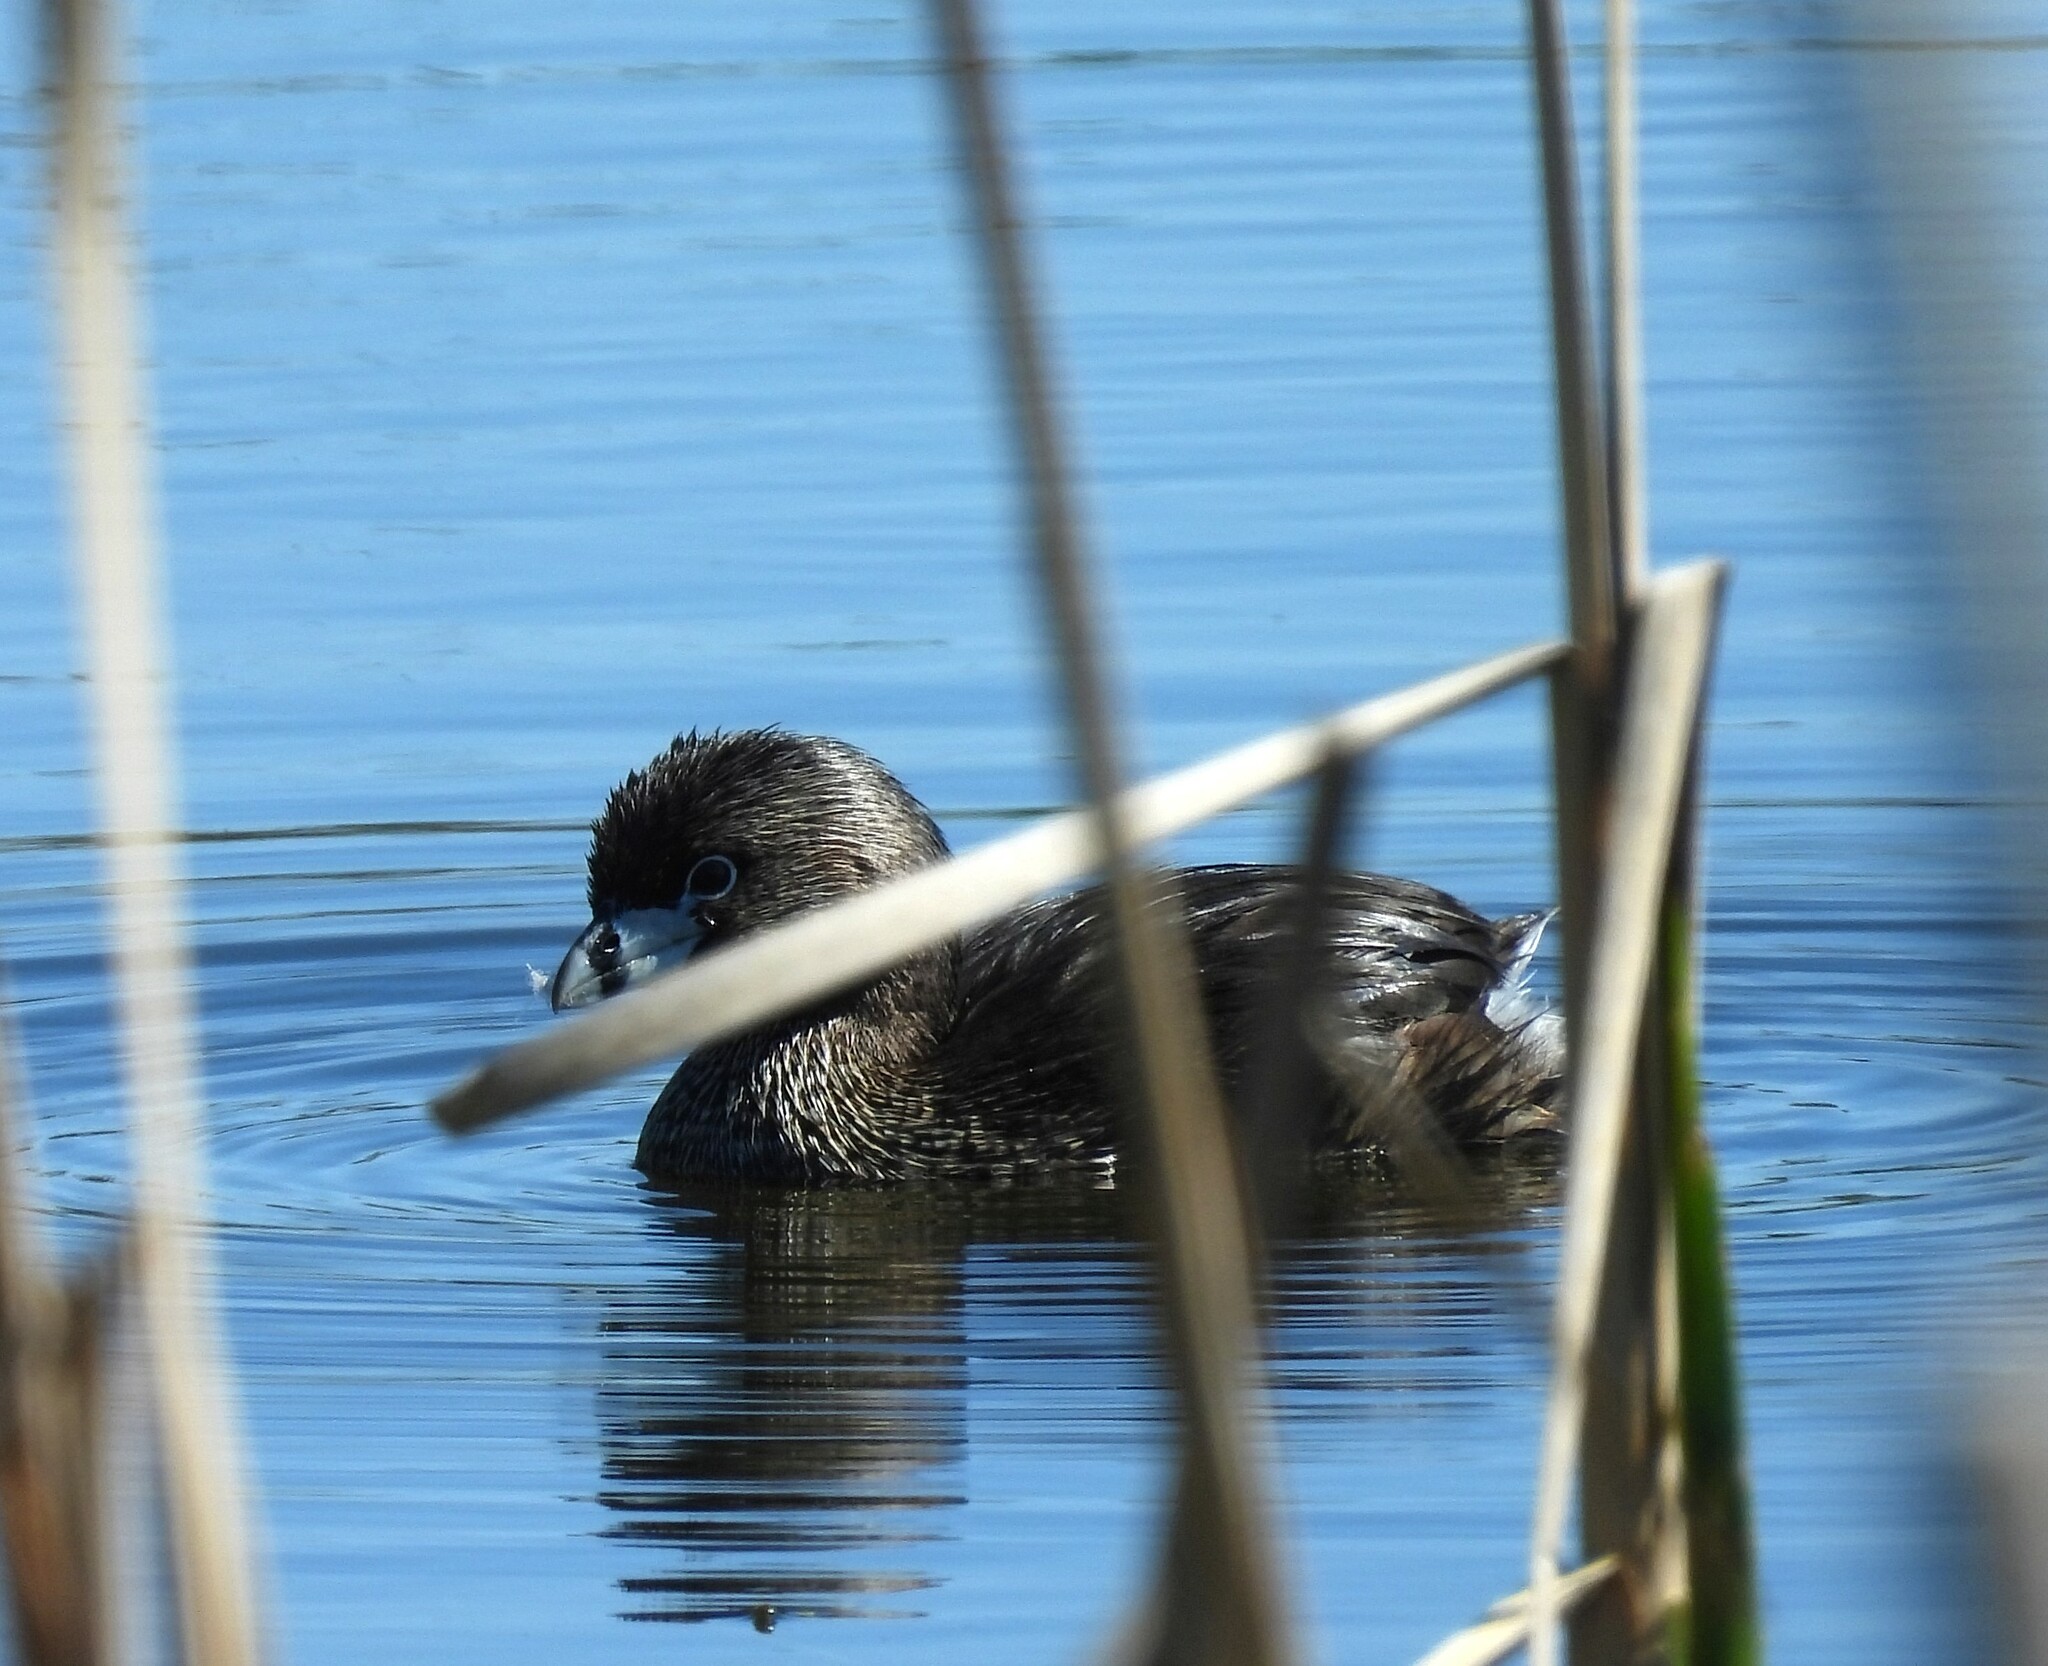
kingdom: Animalia
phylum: Chordata
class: Aves
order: Podicipediformes
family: Podicipedidae
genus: Podilymbus
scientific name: Podilymbus podiceps
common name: Pied-billed grebe
